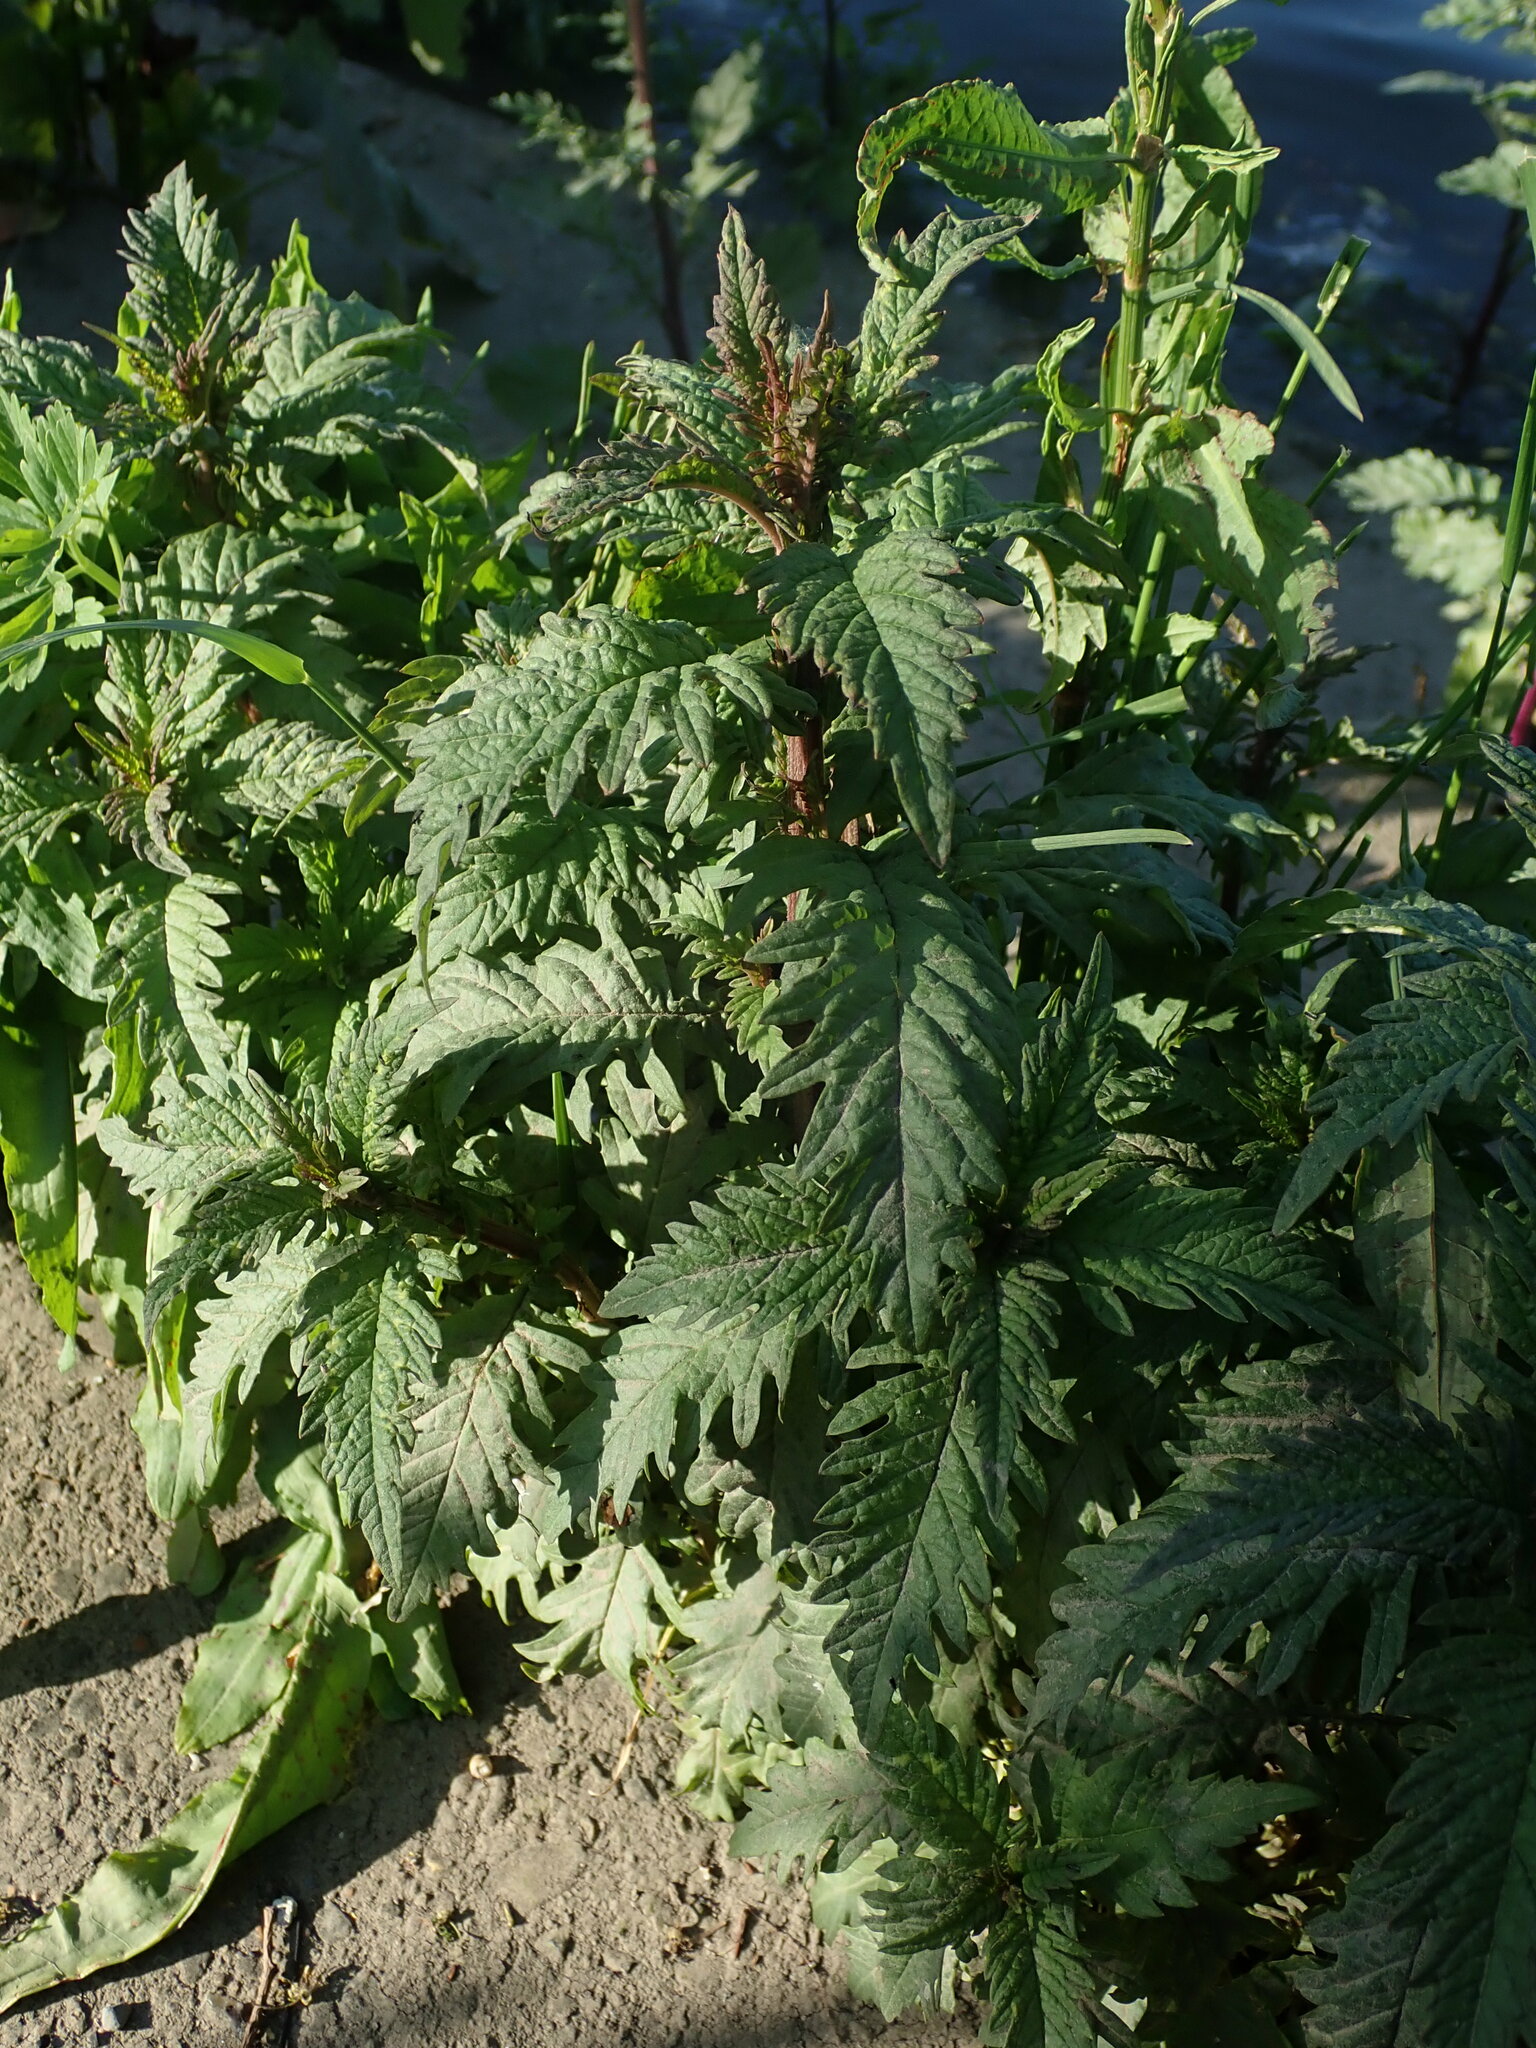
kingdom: Plantae
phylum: Tracheophyta
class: Magnoliopsida
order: Lamiales
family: Lamiaceae
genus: Lycopus
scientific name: Lycopus europaeus
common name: European bugleweed
